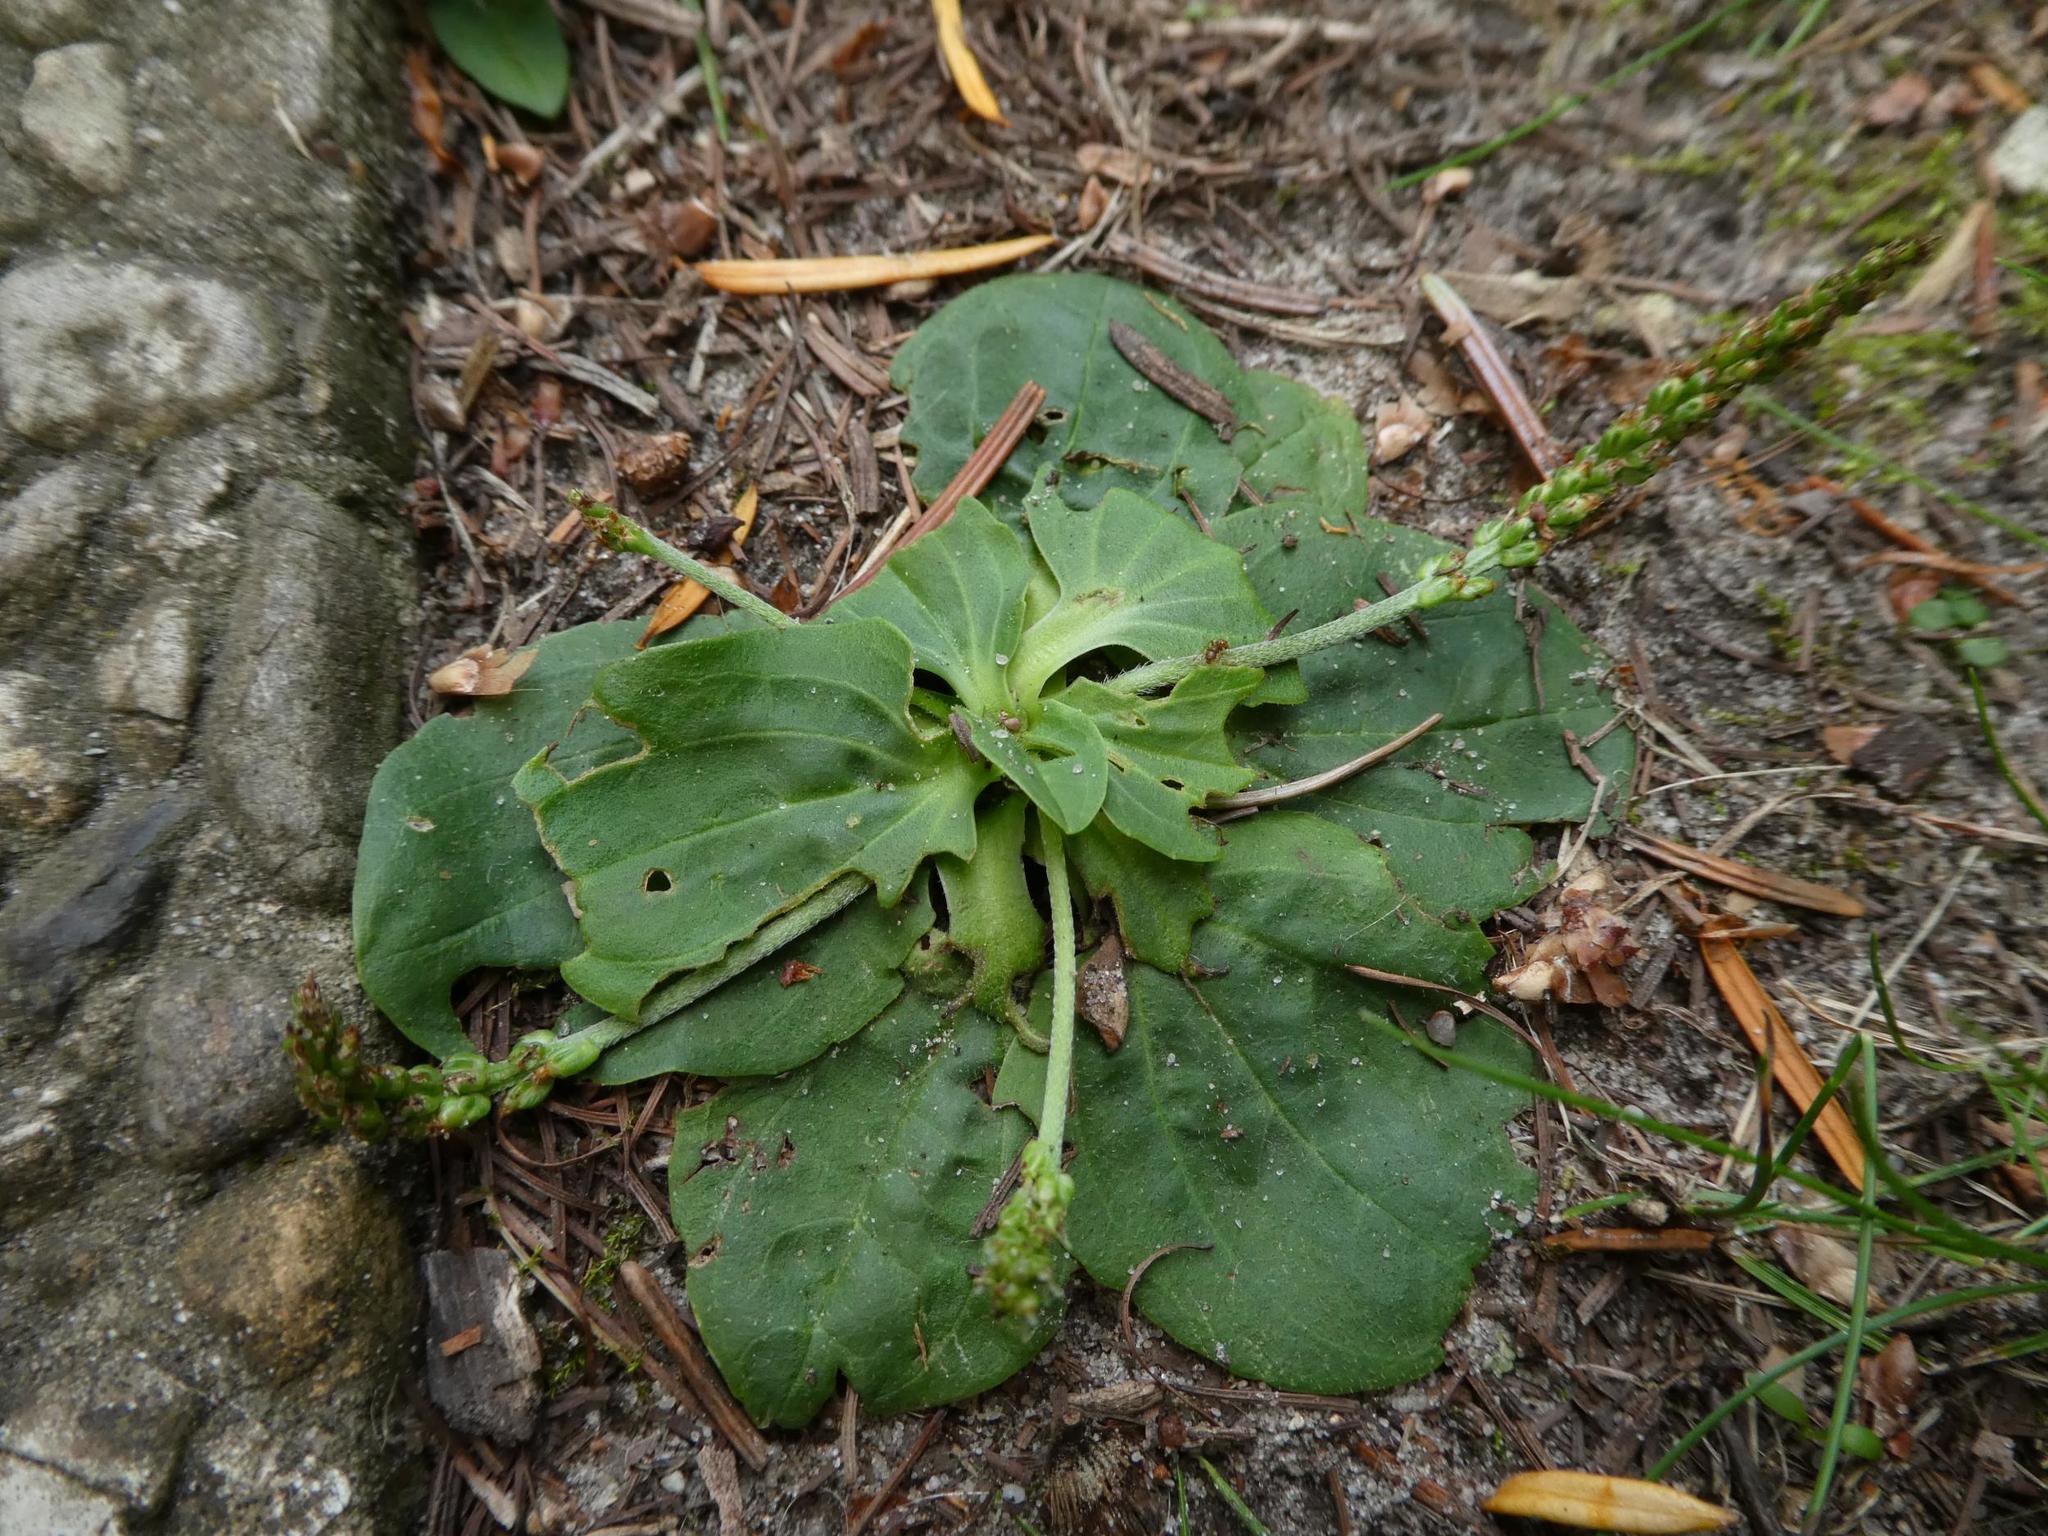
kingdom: Plantae
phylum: Tracheophyta
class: Magnoliopsida
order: Lamiales
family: Plantaginaceae
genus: Plantago
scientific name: Plantago major
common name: Common plantain
